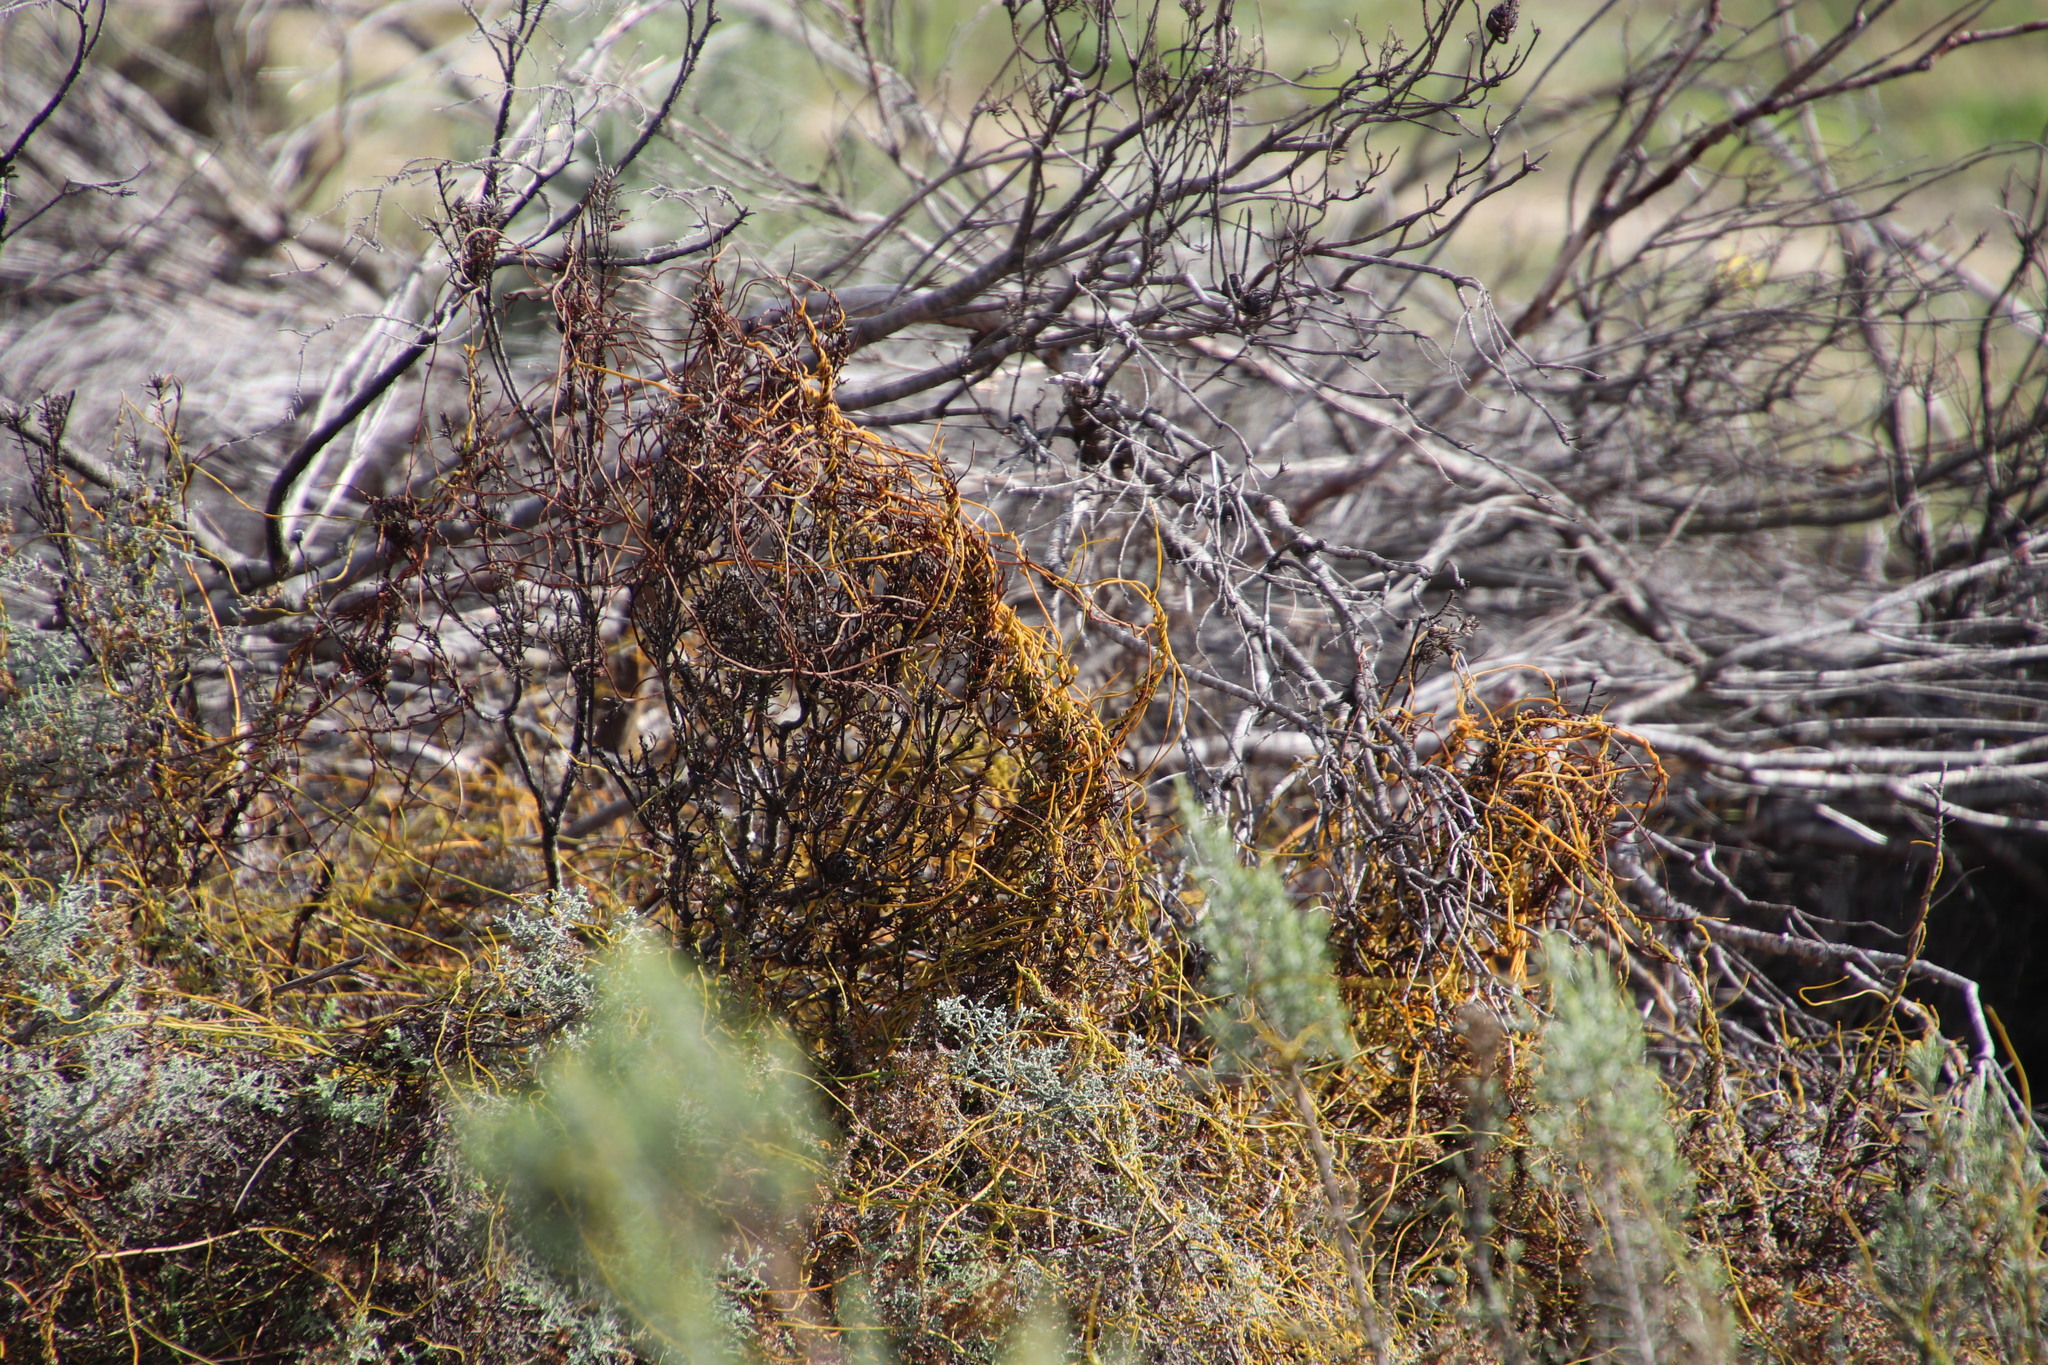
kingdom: Plantae
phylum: Tracheophyta
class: Magnoliopsida
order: Laurales
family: Lauraceae
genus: Cassytha
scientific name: Cassytha ciliolata
